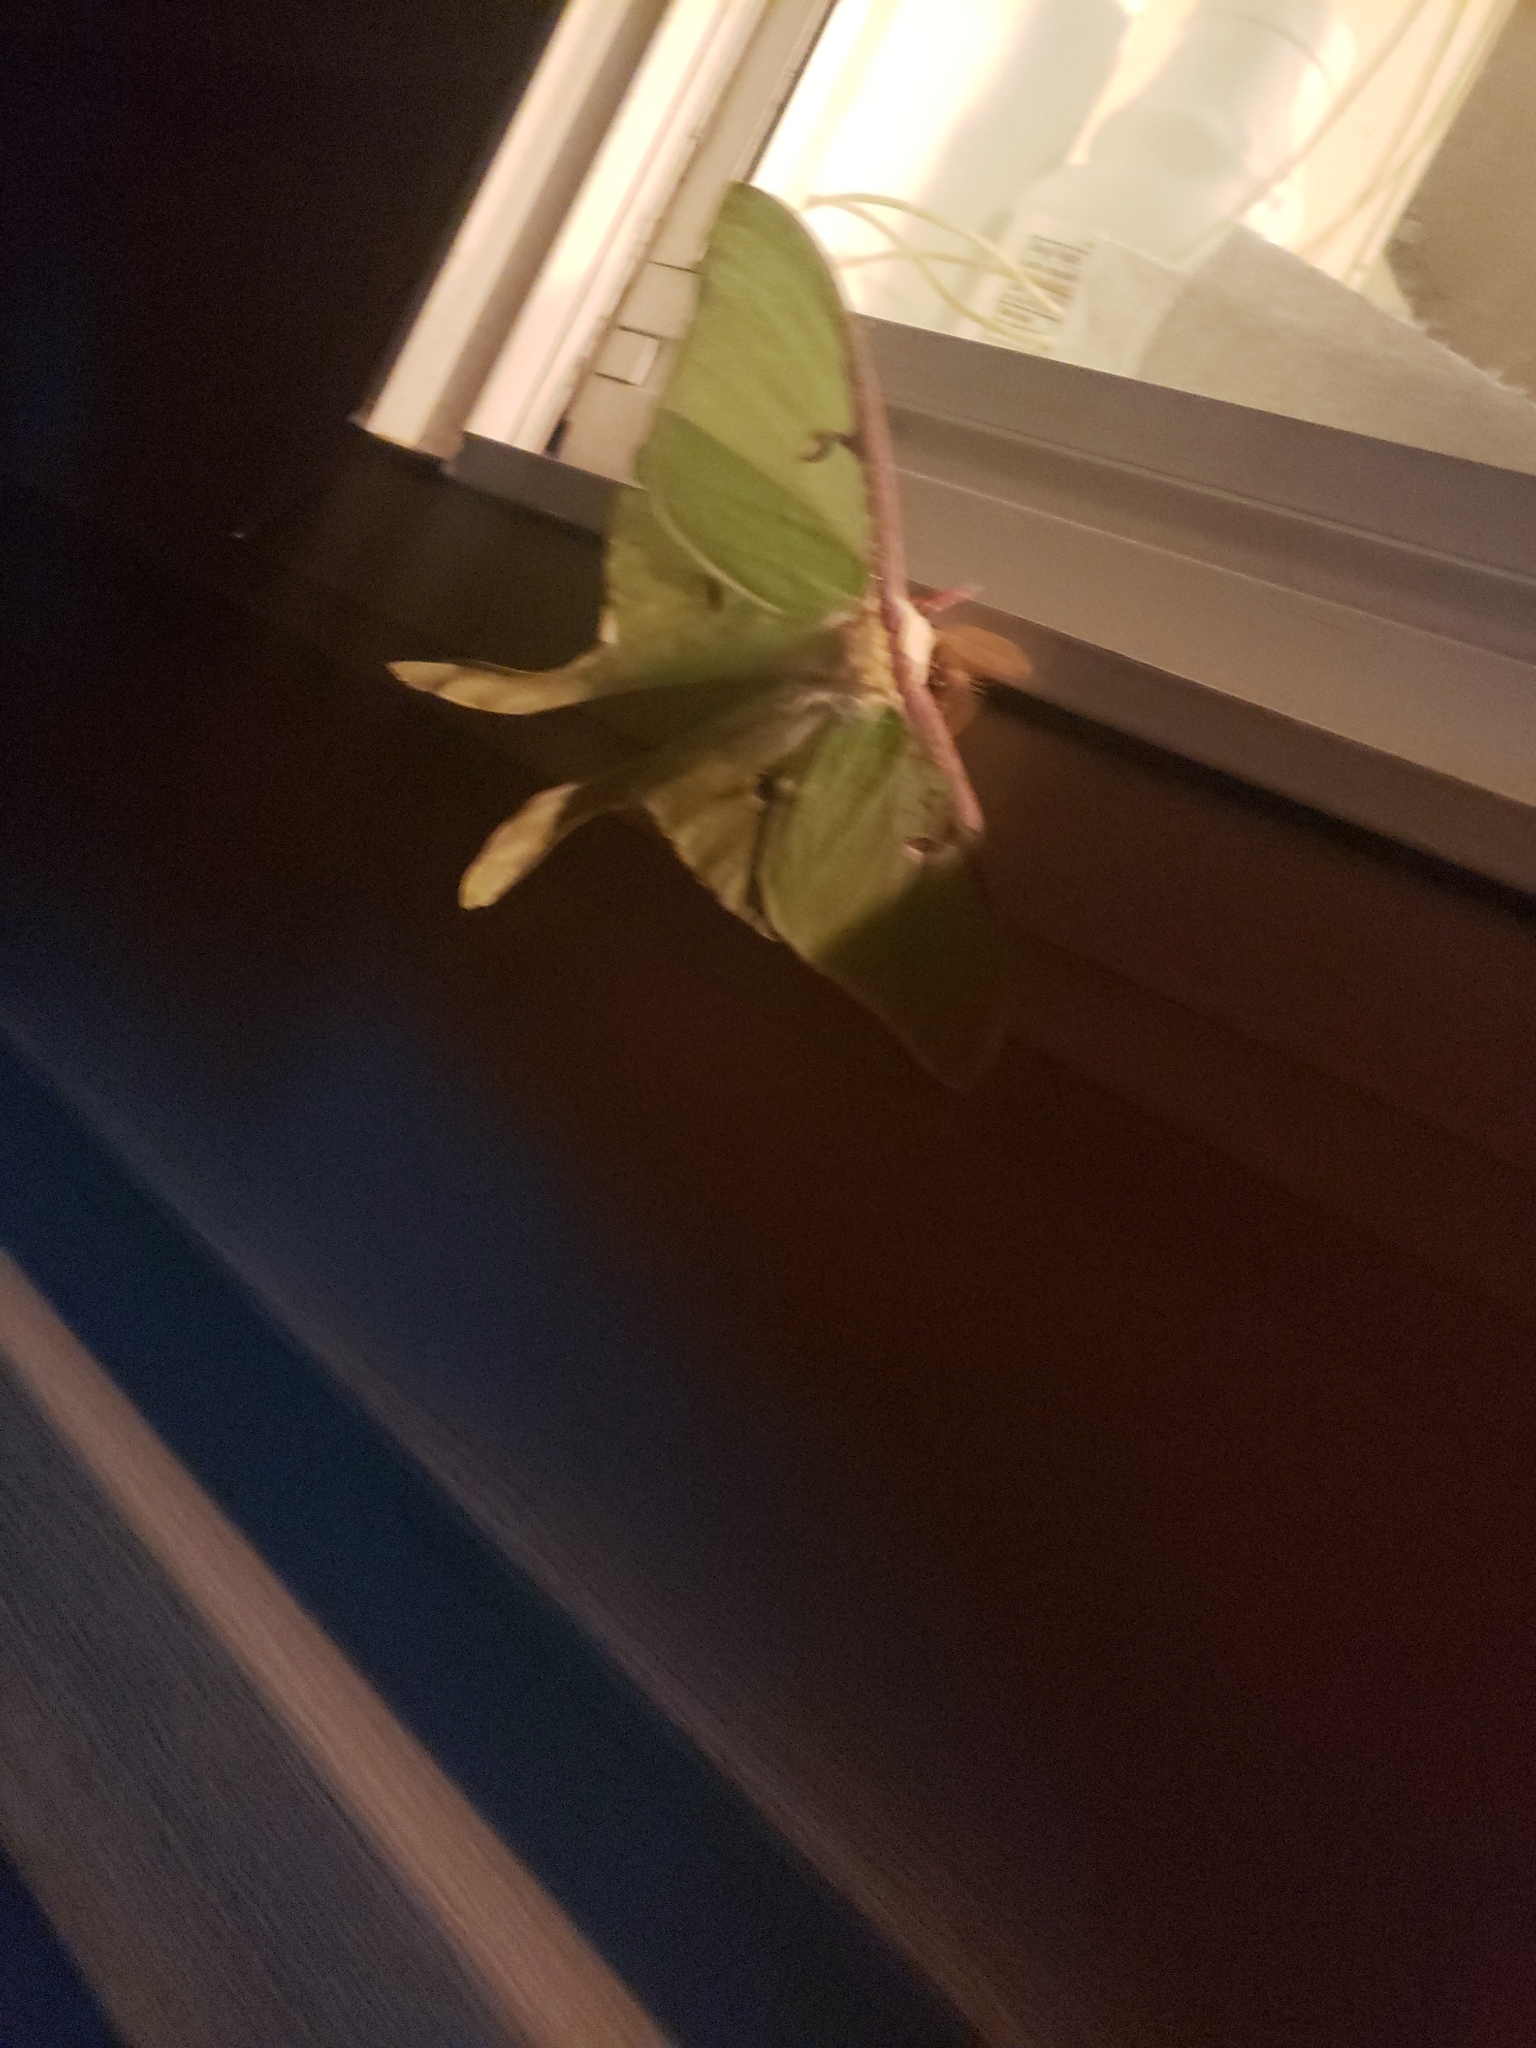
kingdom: Animalia
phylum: Arthropoda
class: Insecta
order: Lepidoptera
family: Saturniidae
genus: Actias
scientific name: Actias luna
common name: Luna moth
